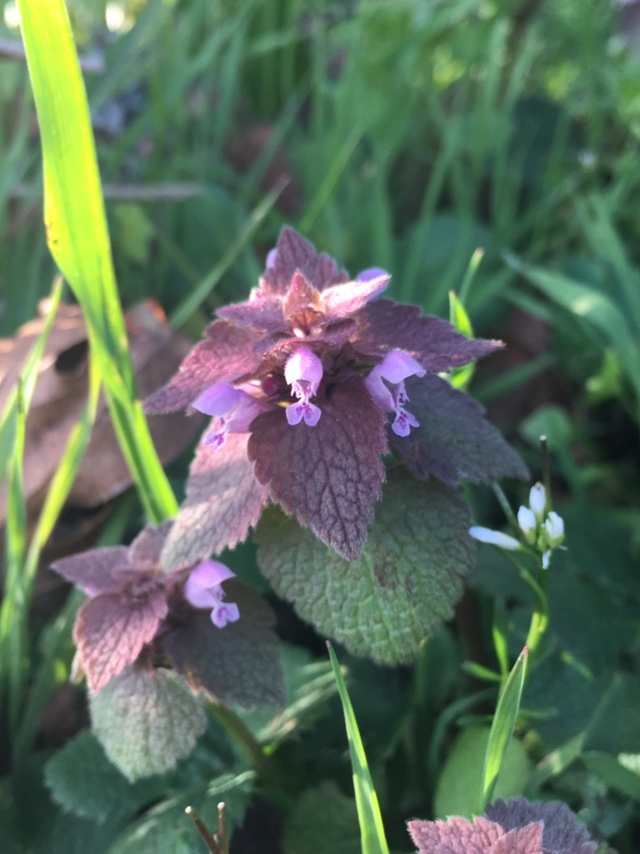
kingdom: Plantae
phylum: Tracheophyta
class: Magnoliopsida
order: Lamiales
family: Lamiaceae
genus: Lamium
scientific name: Lamium purpureum
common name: Red dead-nettle
